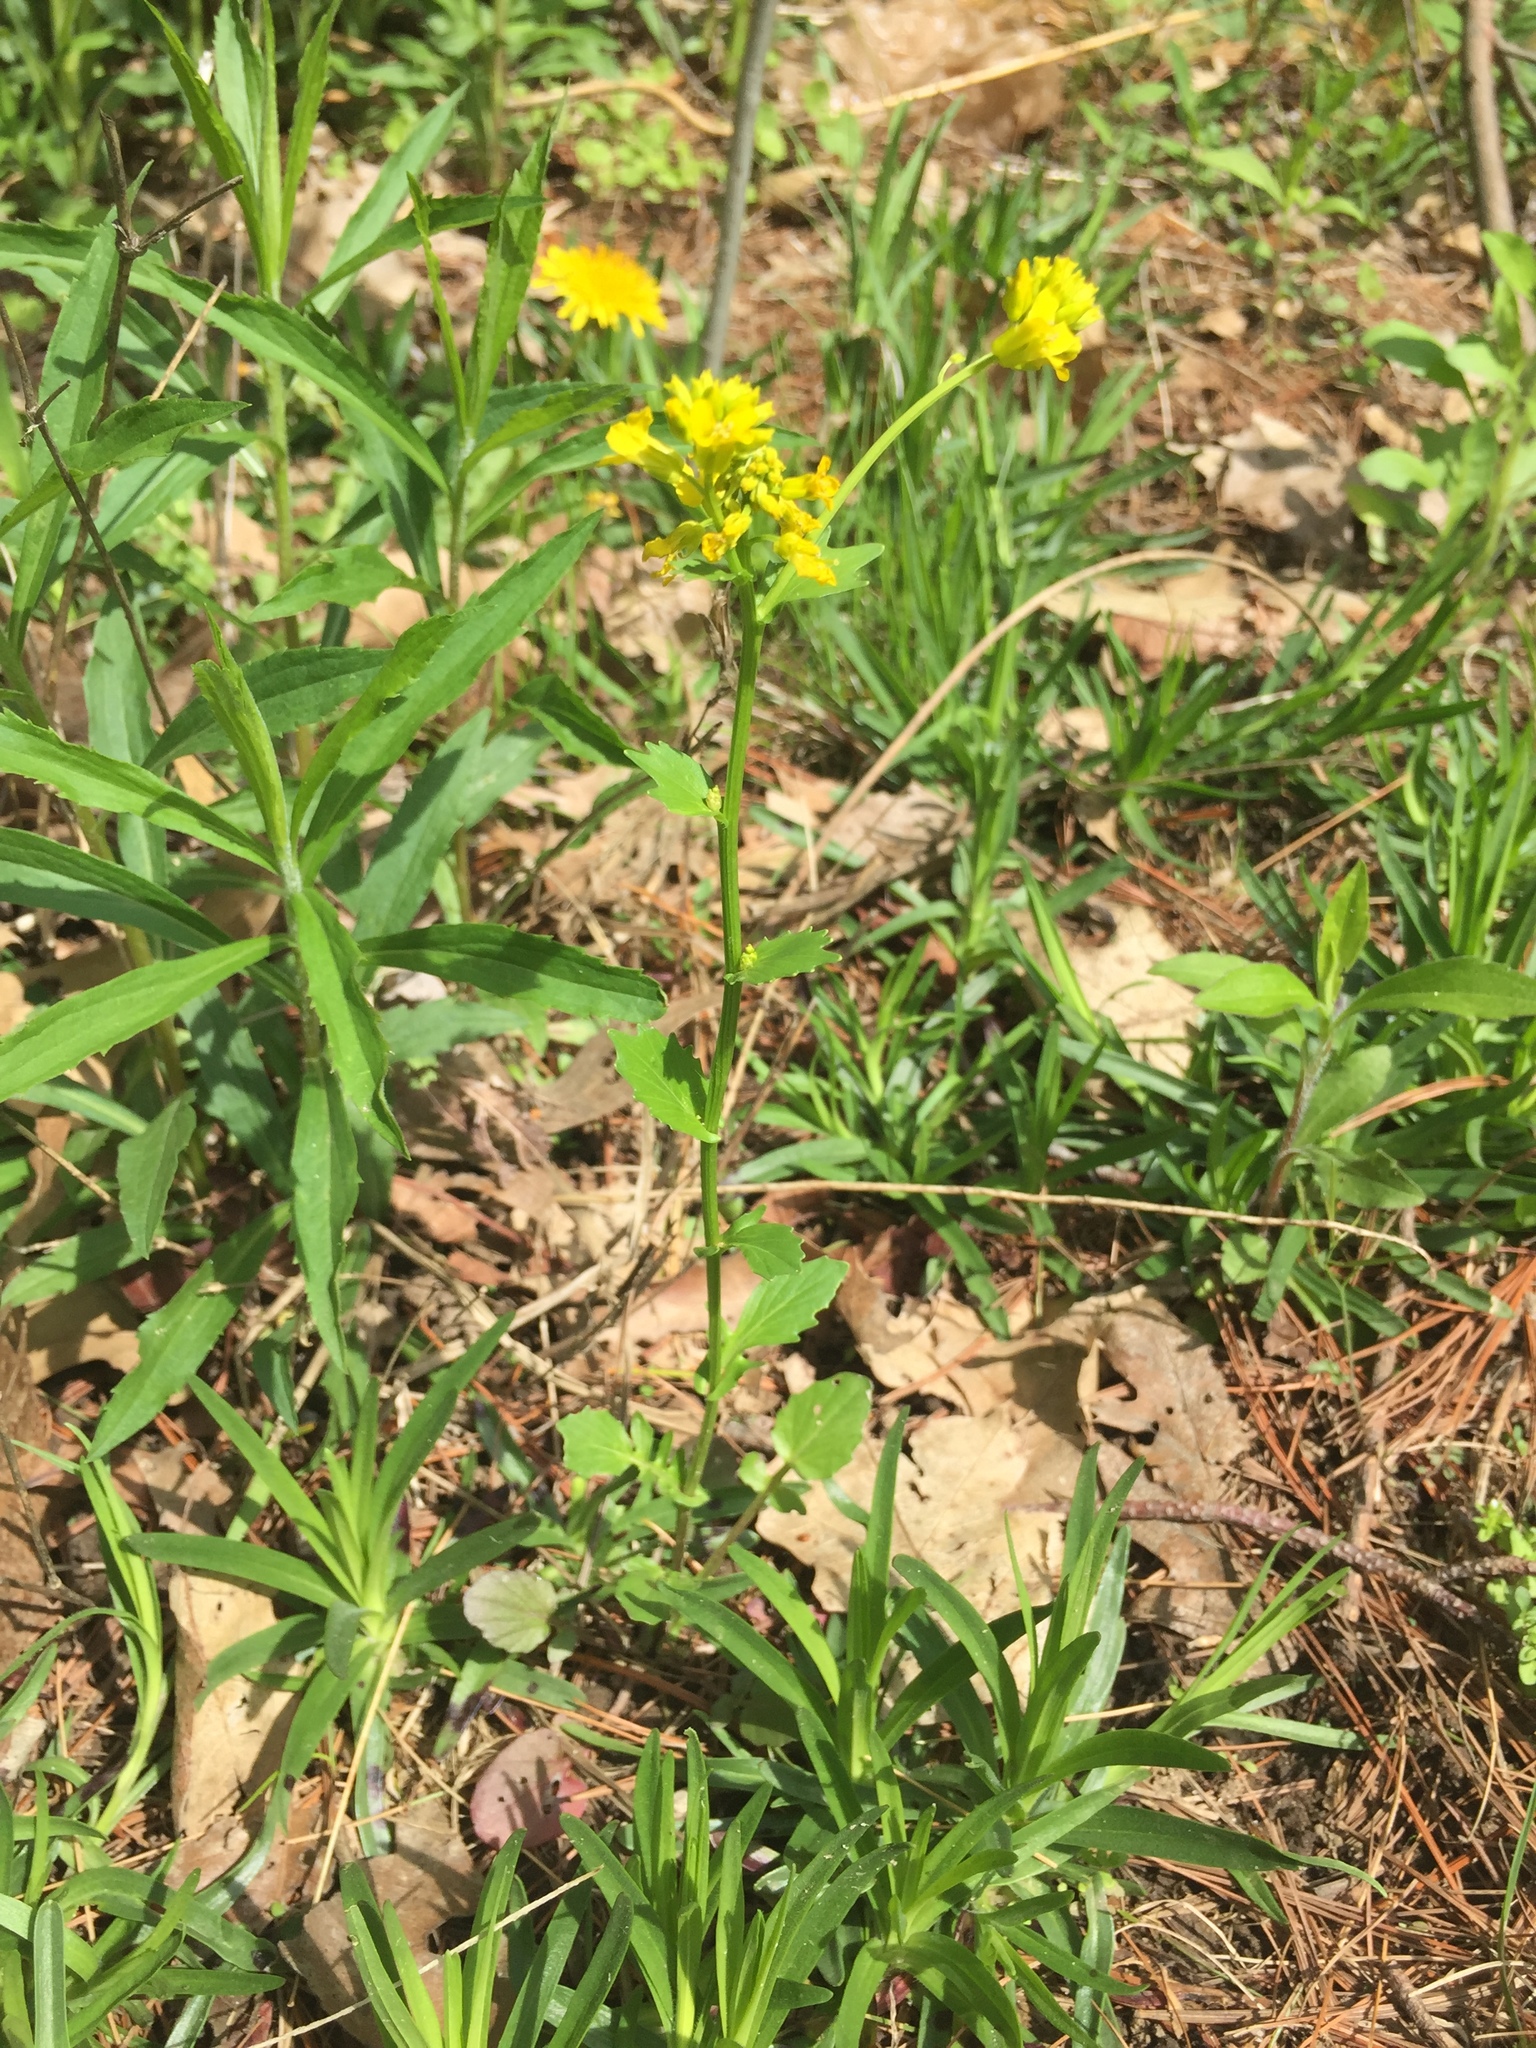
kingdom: Plantae
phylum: Tracheophyta
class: Magnoliopsida
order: Brassicales
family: Brassicaceae
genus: Barbarea
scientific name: Barbarea vulgaris
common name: Cressy-greens
